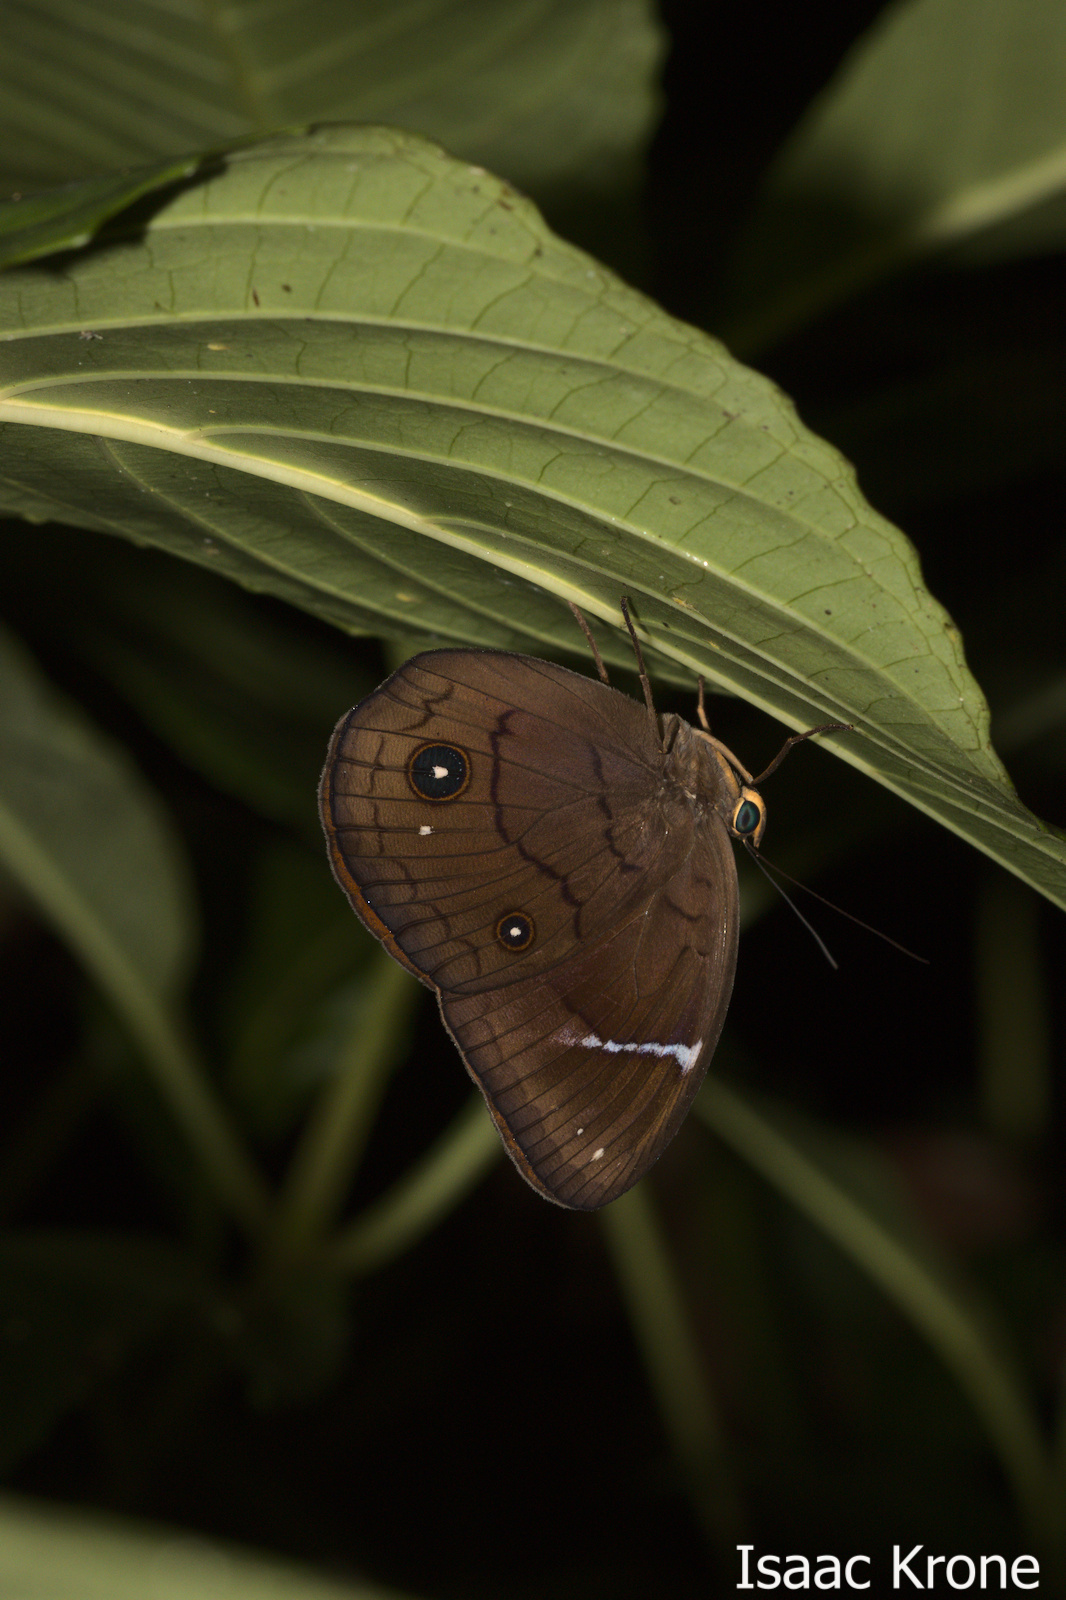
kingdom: Animalia
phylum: Arthropoda
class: Insecta
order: Lepidoptera
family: Nymphalidae
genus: Faunis
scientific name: Faunis menado
